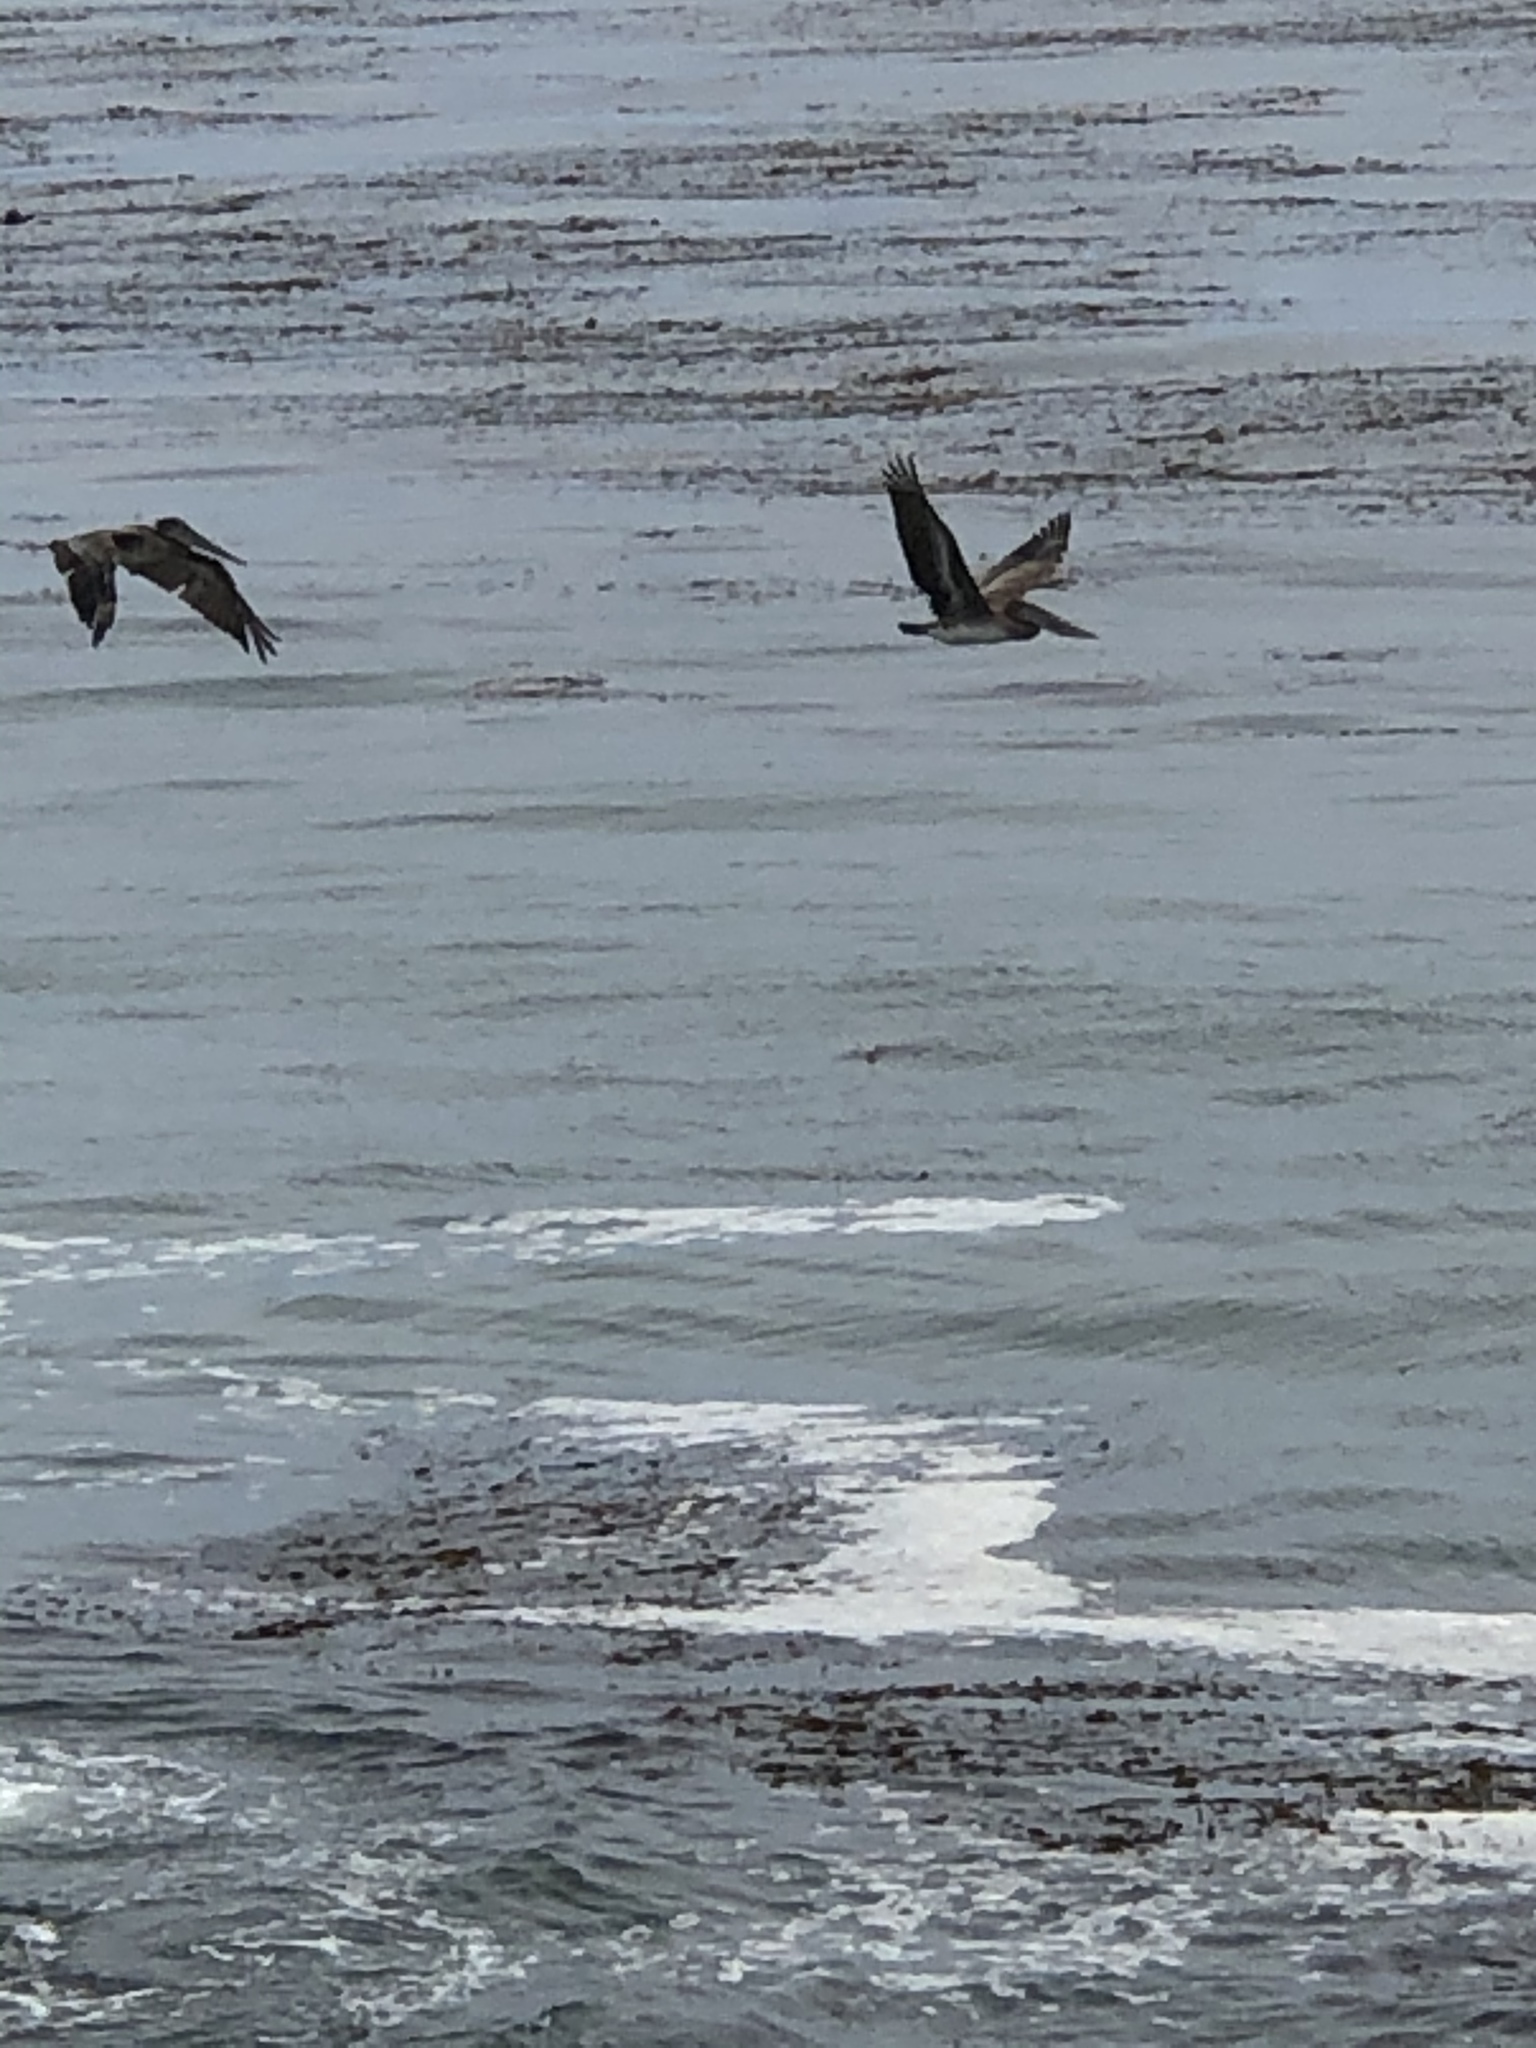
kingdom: Animalia
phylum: Chordata
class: Aves
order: Pelecaniformes
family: Pelecanidae
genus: Pelecanus
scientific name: Pelecanus occidentalis
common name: Brown pelican
